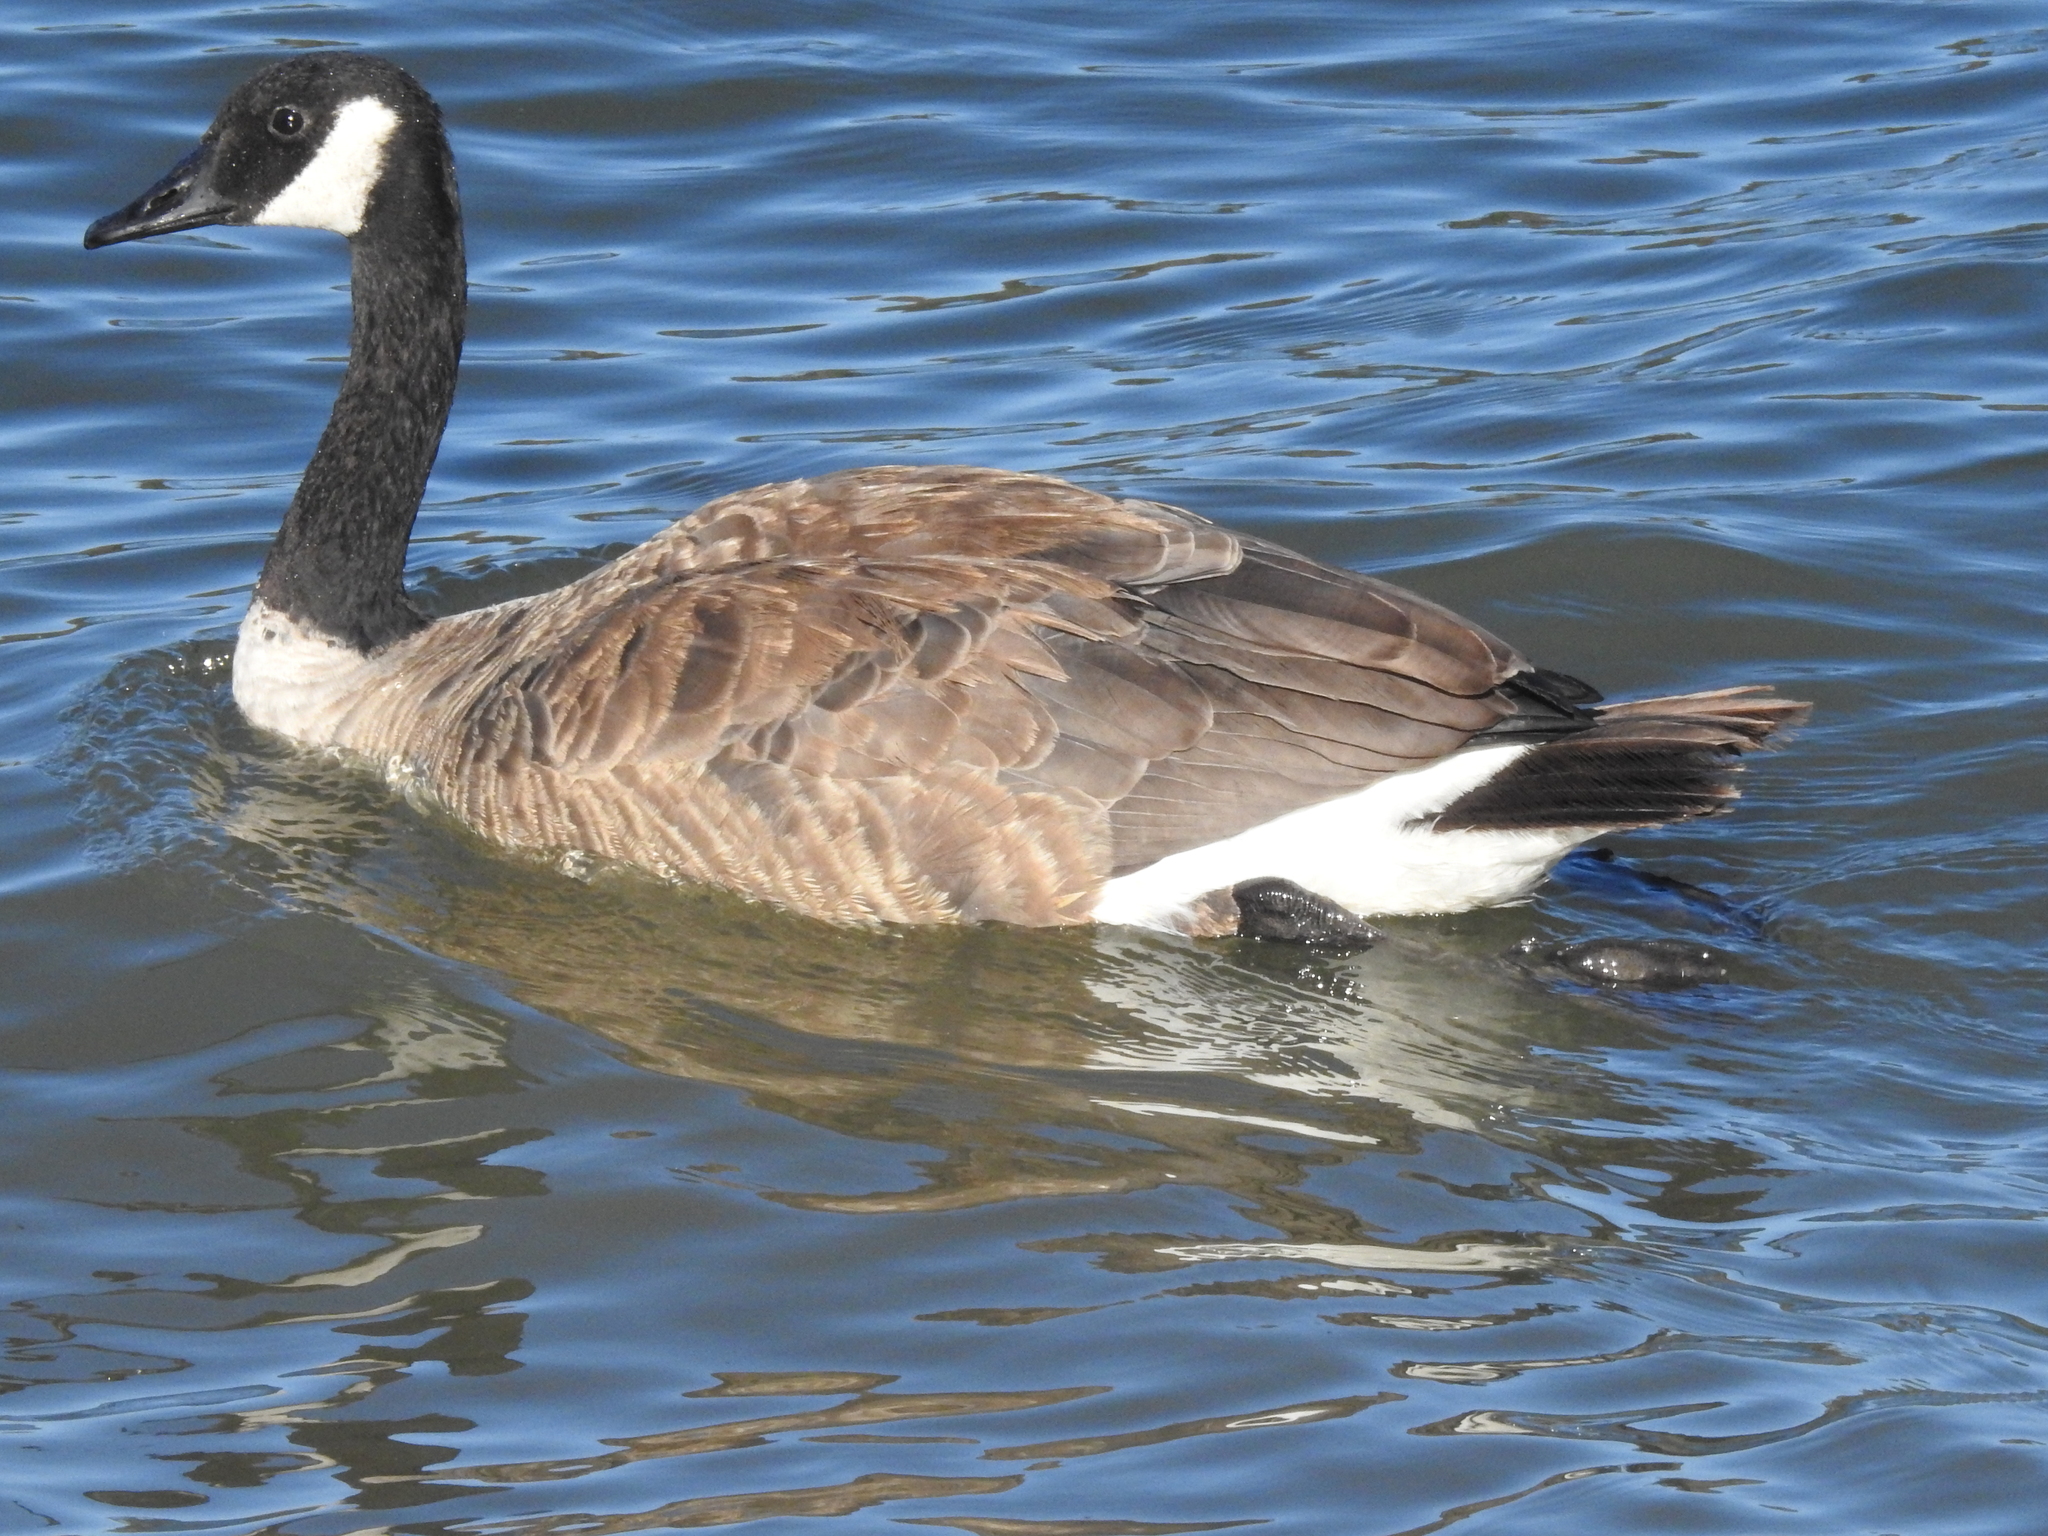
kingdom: Animalia
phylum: Chordata
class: Aves
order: Anseriformes
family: Anatidae
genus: Branta
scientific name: Branta canadensis
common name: Canada goose
